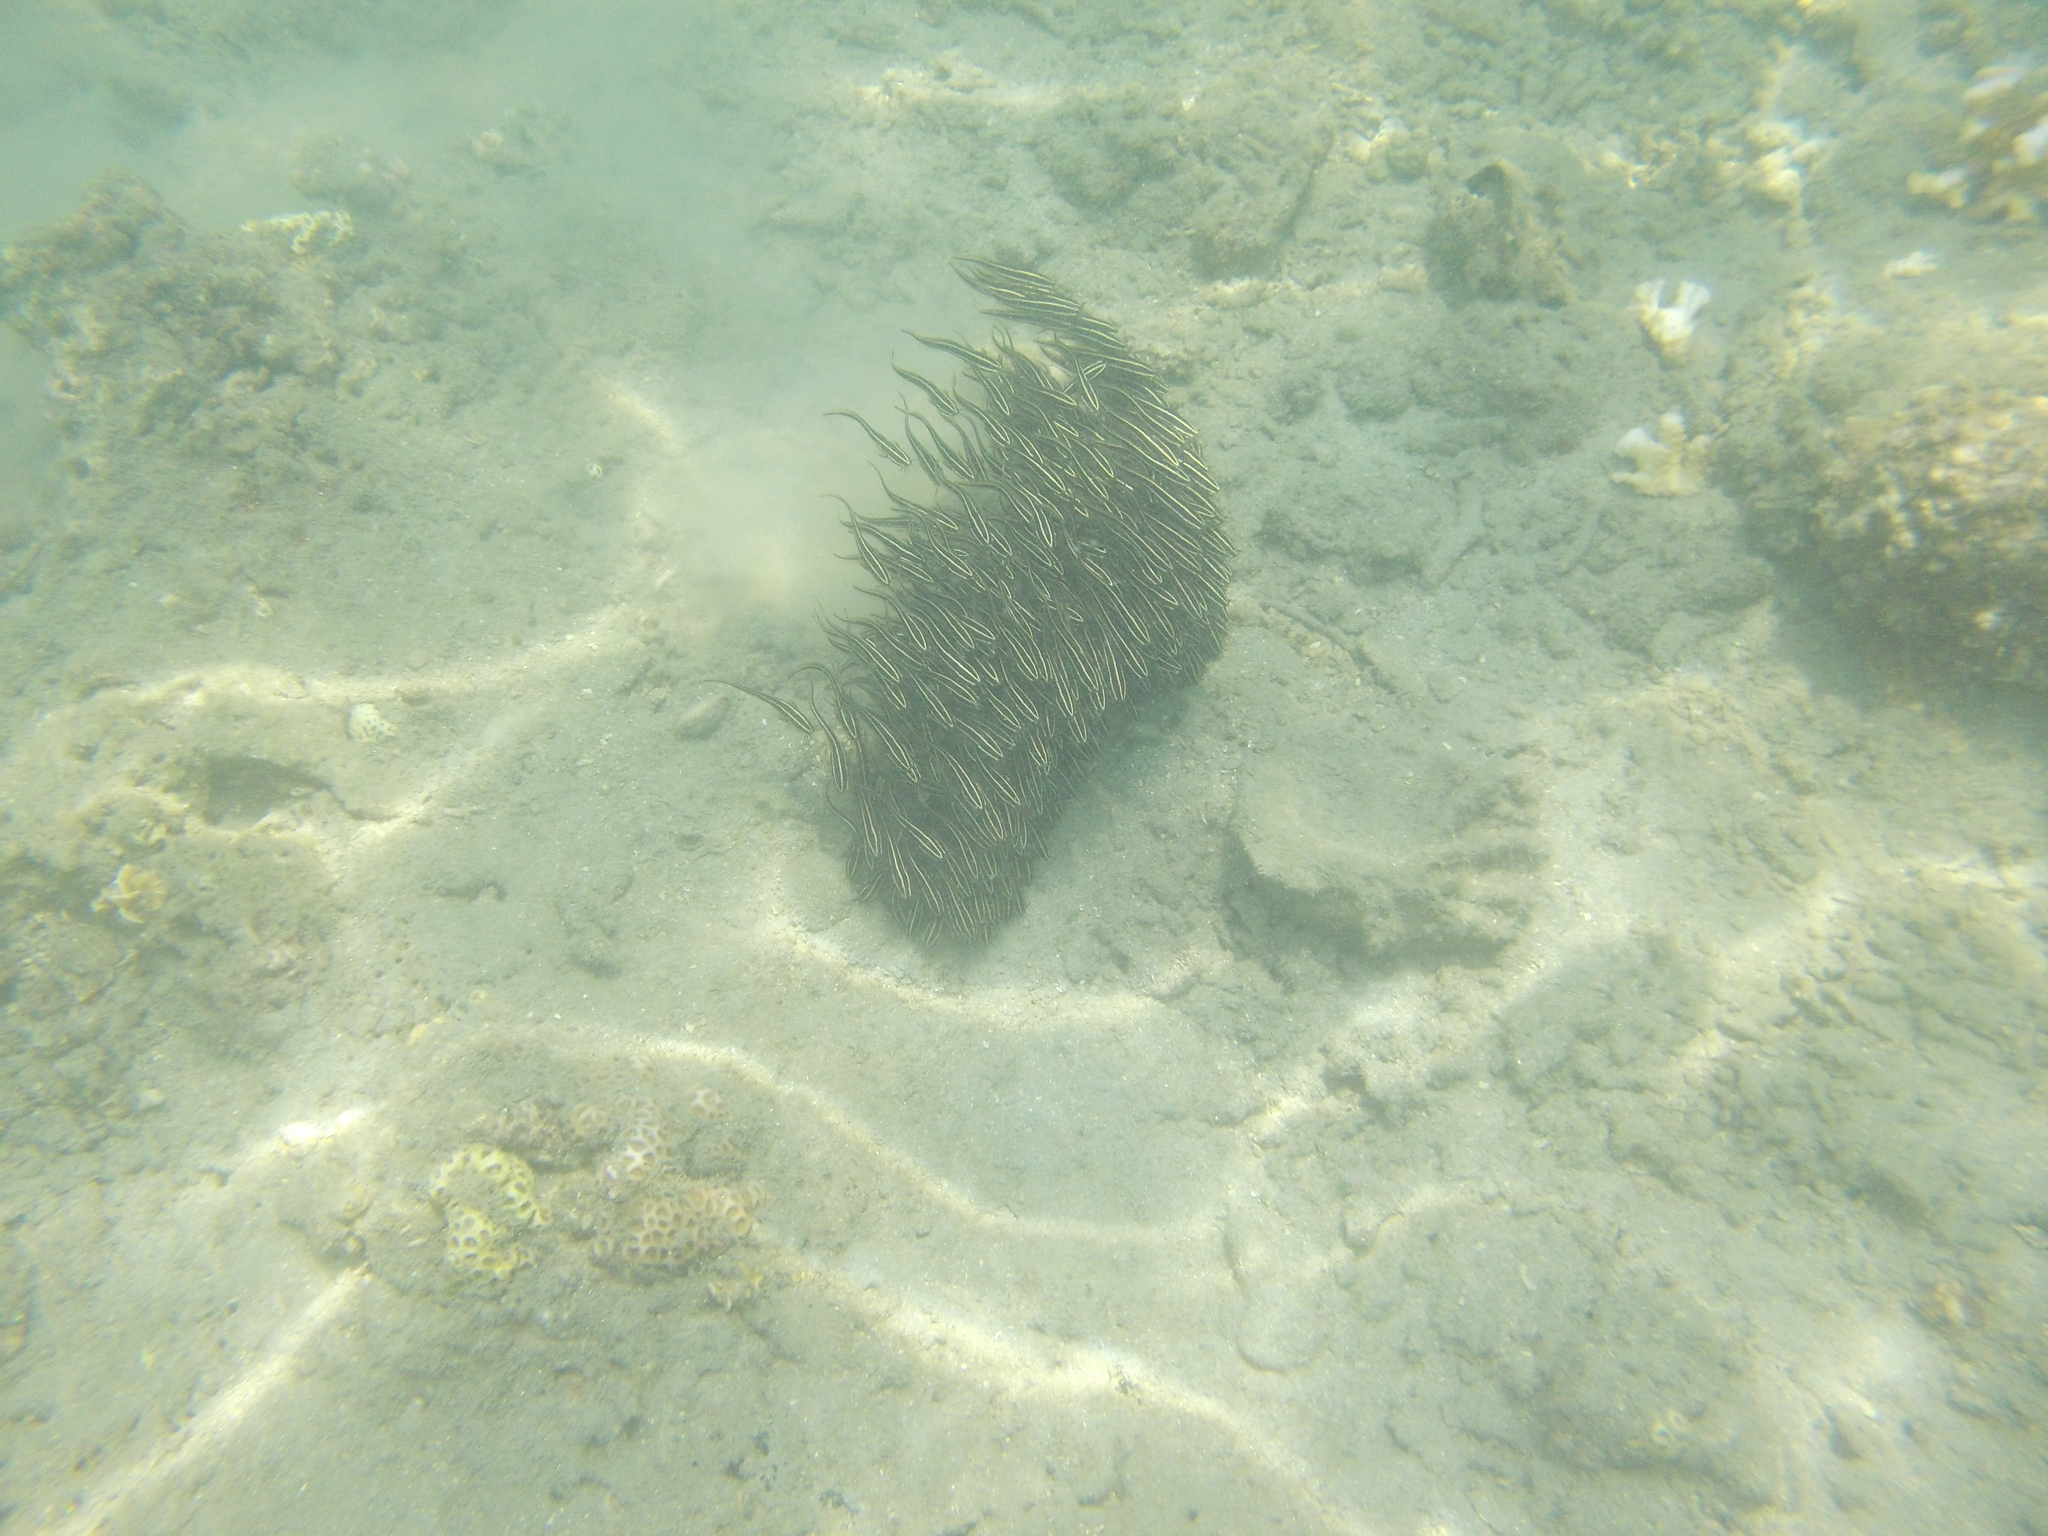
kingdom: Animalia
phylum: Chordata
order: Siluriformes
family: Plotosidae
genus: Plotosus
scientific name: Plotosus lineatus
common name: Striped eel catfish
